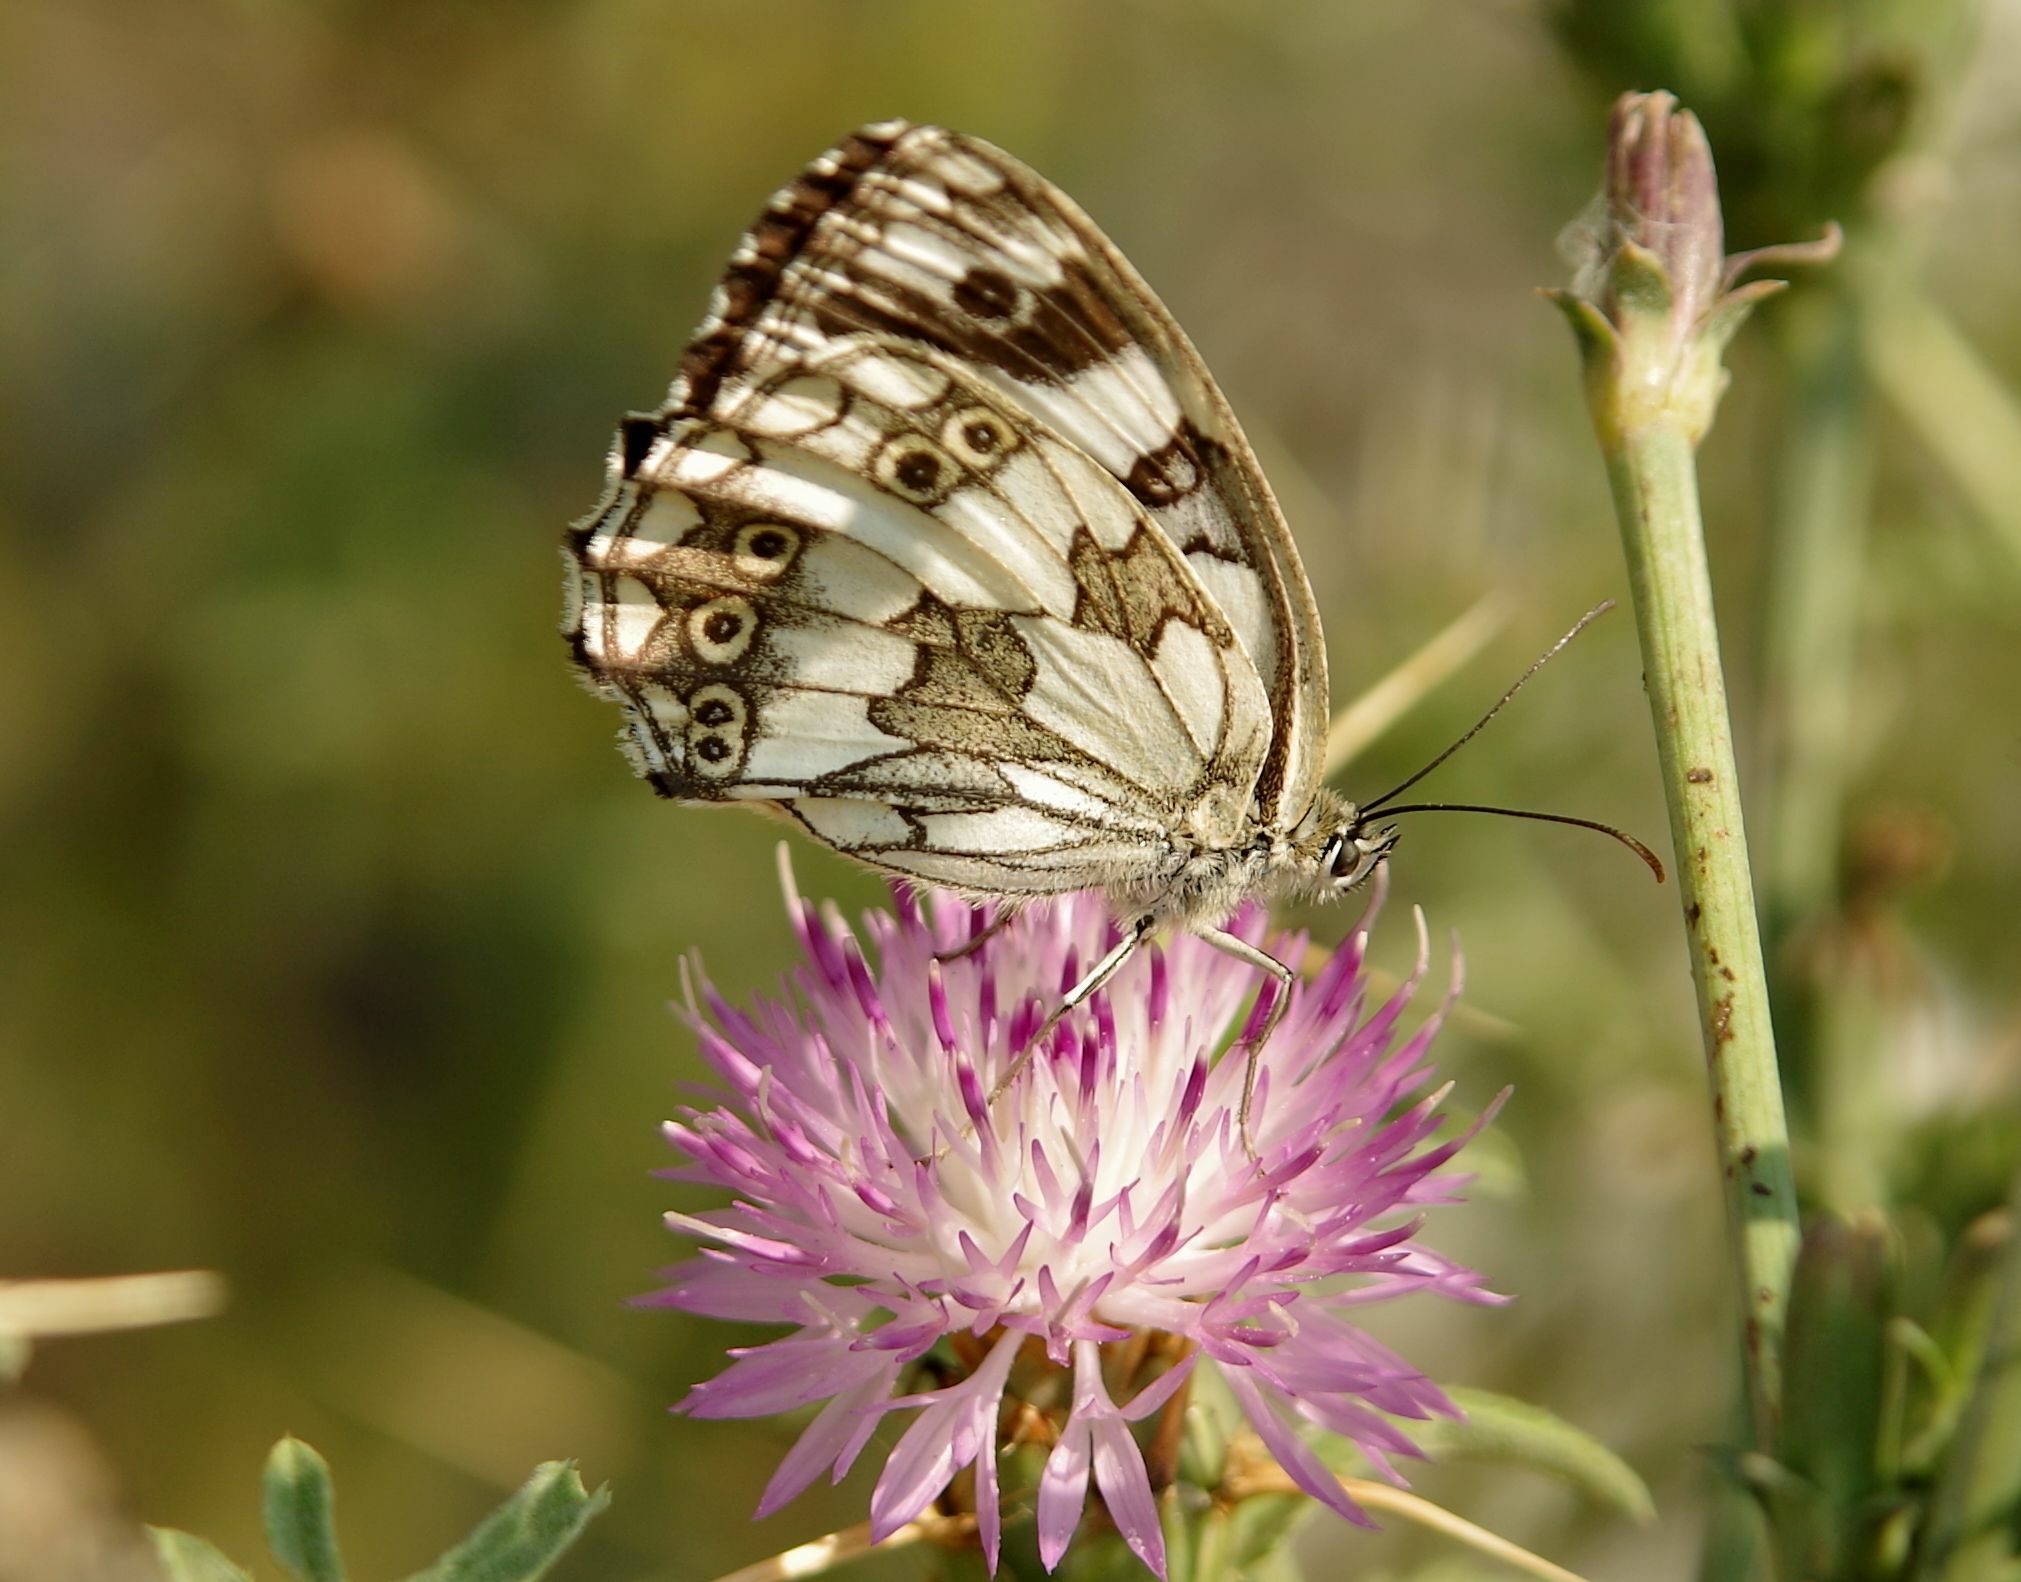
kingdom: Animalia
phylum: Arthropoda
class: Insecta
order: Lepidoptera
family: Nymphalidae
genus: Melanargia
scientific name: Melanargia galathea
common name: Marbled white
